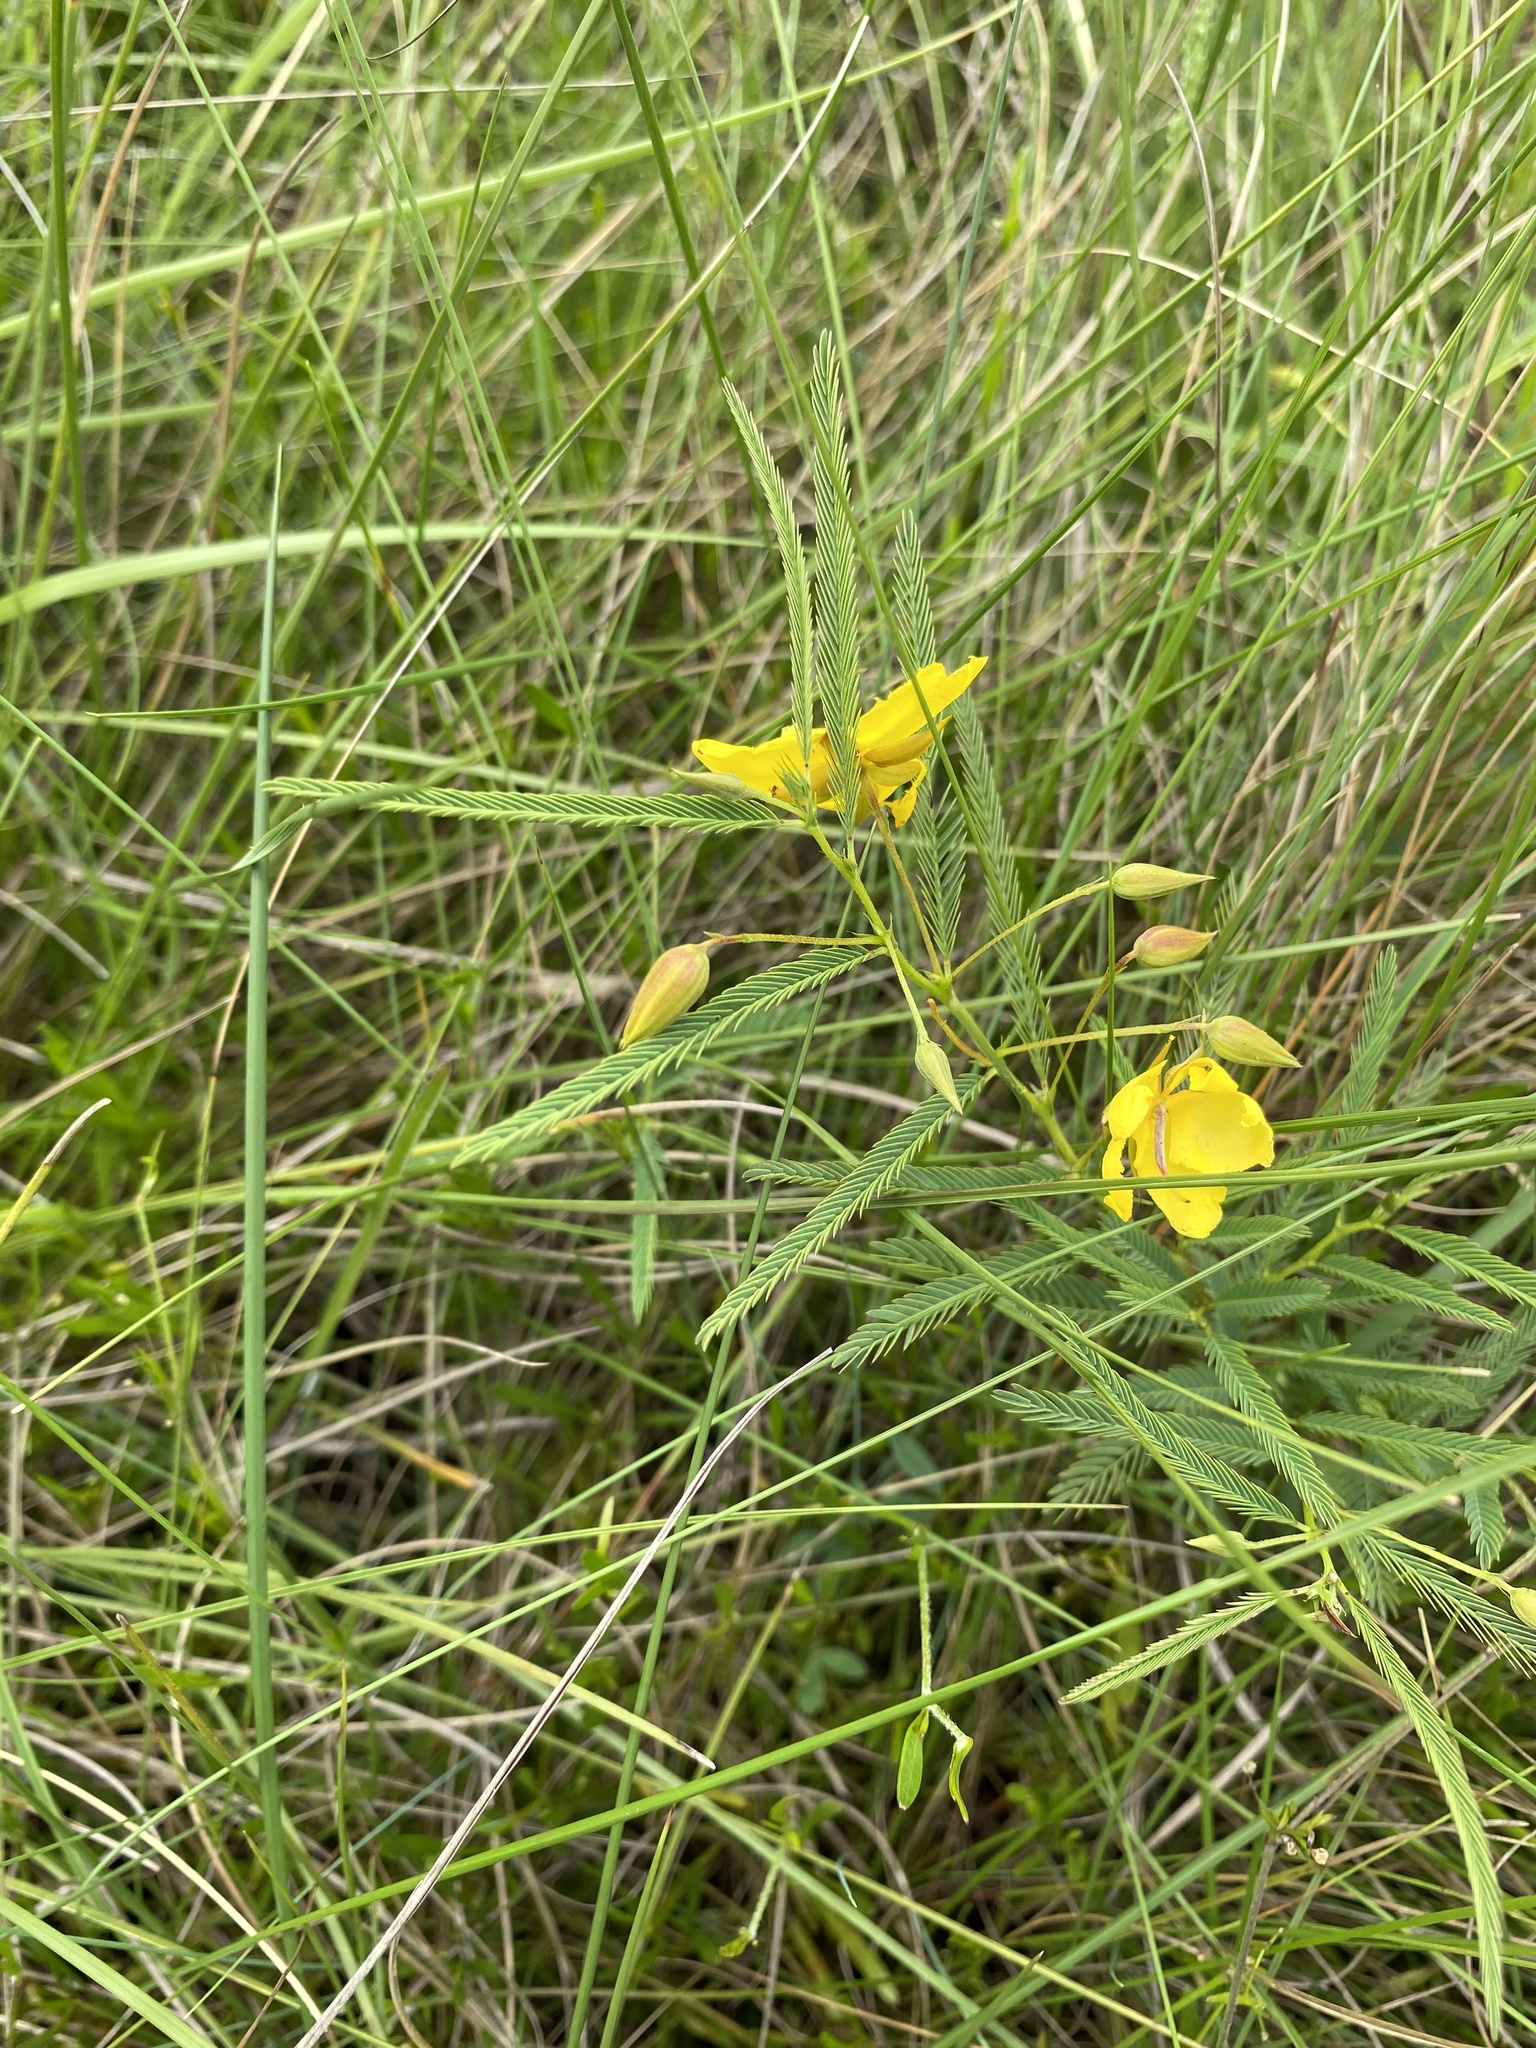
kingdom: Plantae
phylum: Tracheophyta
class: Magnoliopsida
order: Fabales
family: Fabaceae
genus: Chamaecrista
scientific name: Chamaecrista comosa
